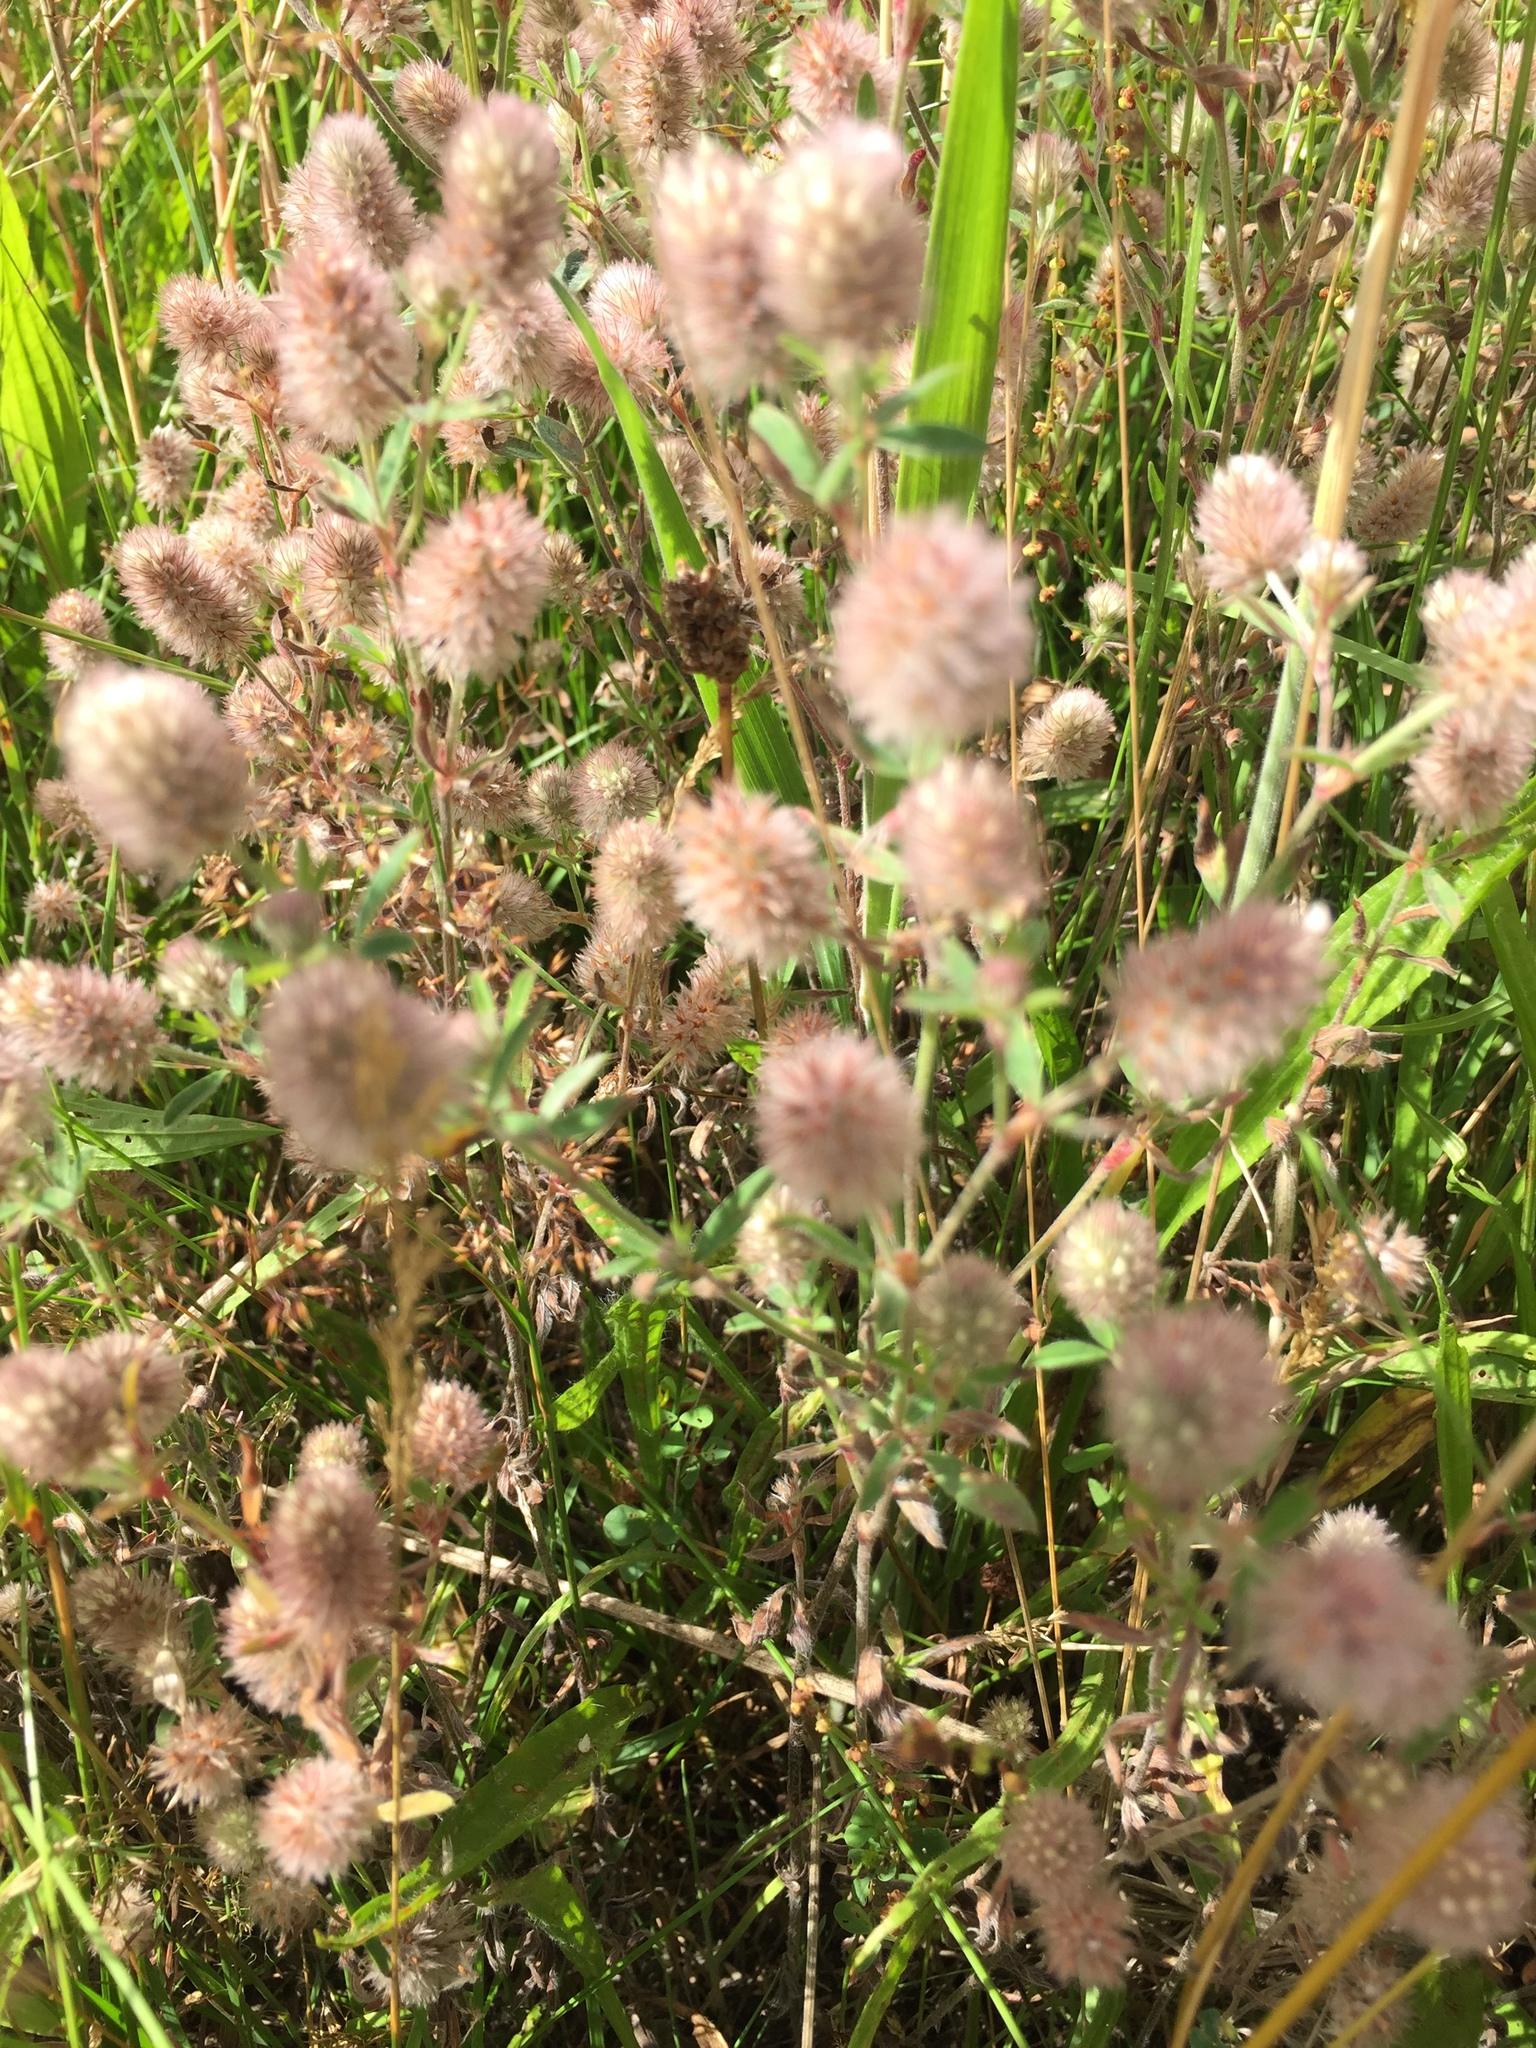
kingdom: Plantae
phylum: Tracheophyta
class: Magnoliopsida
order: Fabales
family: Fabaceae
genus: Trifolium
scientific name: Trifolium arvense
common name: Hare's-foot clover
